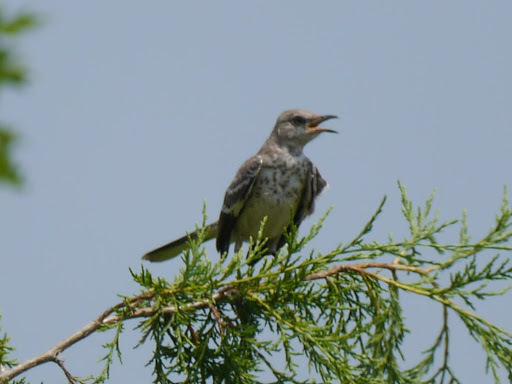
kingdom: Animalia
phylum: Chordata
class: Aves
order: Passeriformes
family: Mimidae
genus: Mimus
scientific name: Mimus polyglottos
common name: Northern mockingbird
